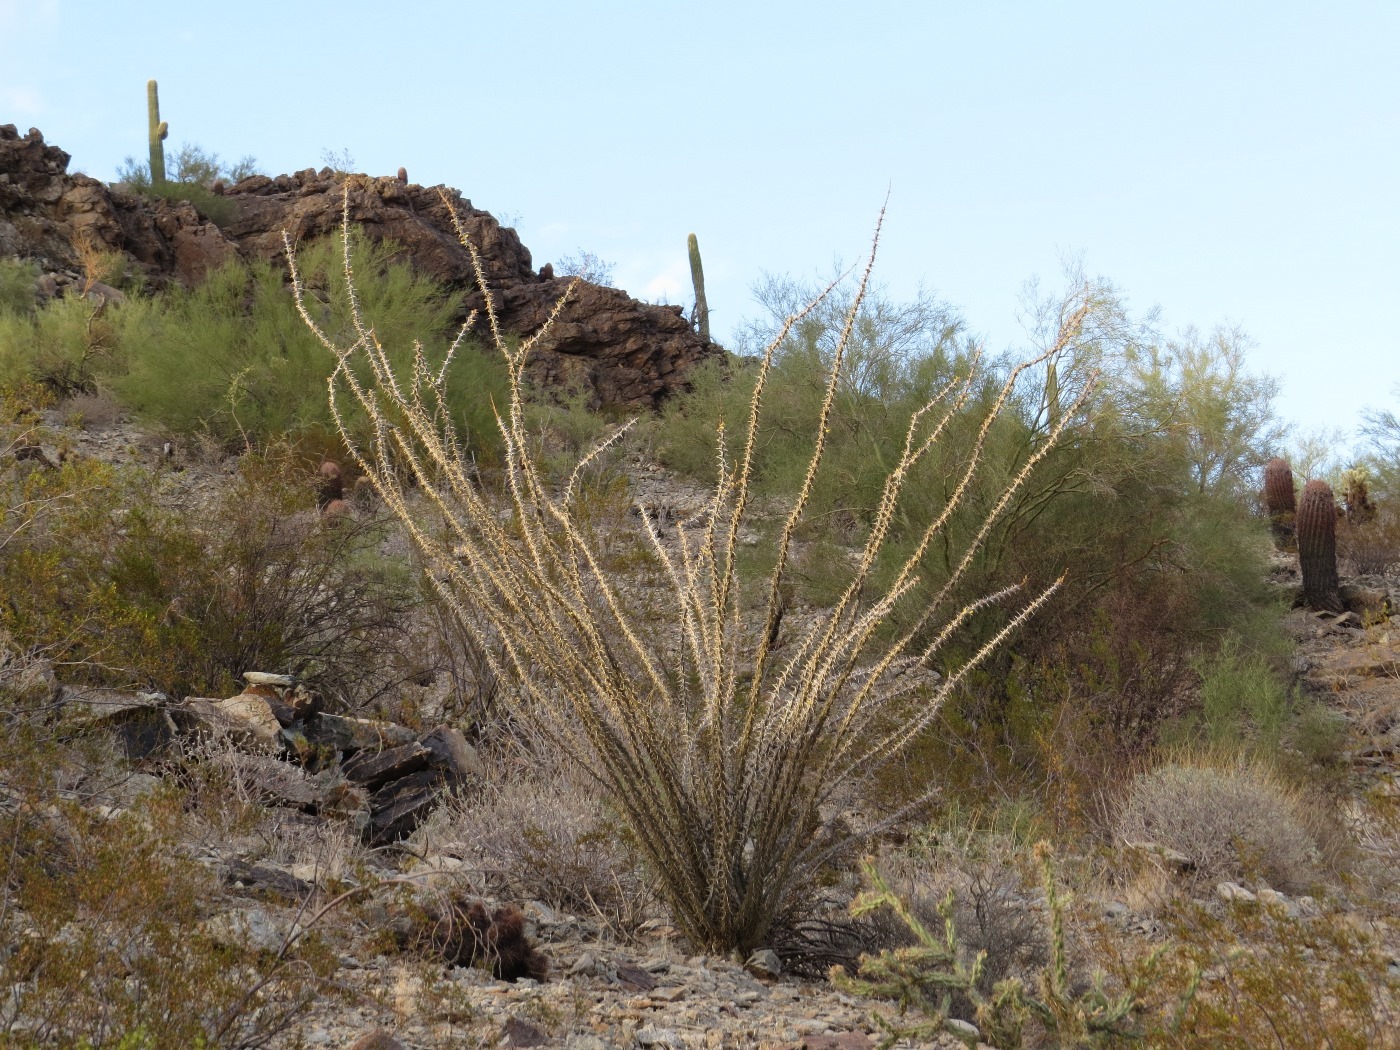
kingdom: Plantae
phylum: Tracheophyta
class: Magnoliopsida
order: Ericales
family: Fouquieriaceae
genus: Fouquieria
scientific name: Fouquieria splendens
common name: Vine-cactus
